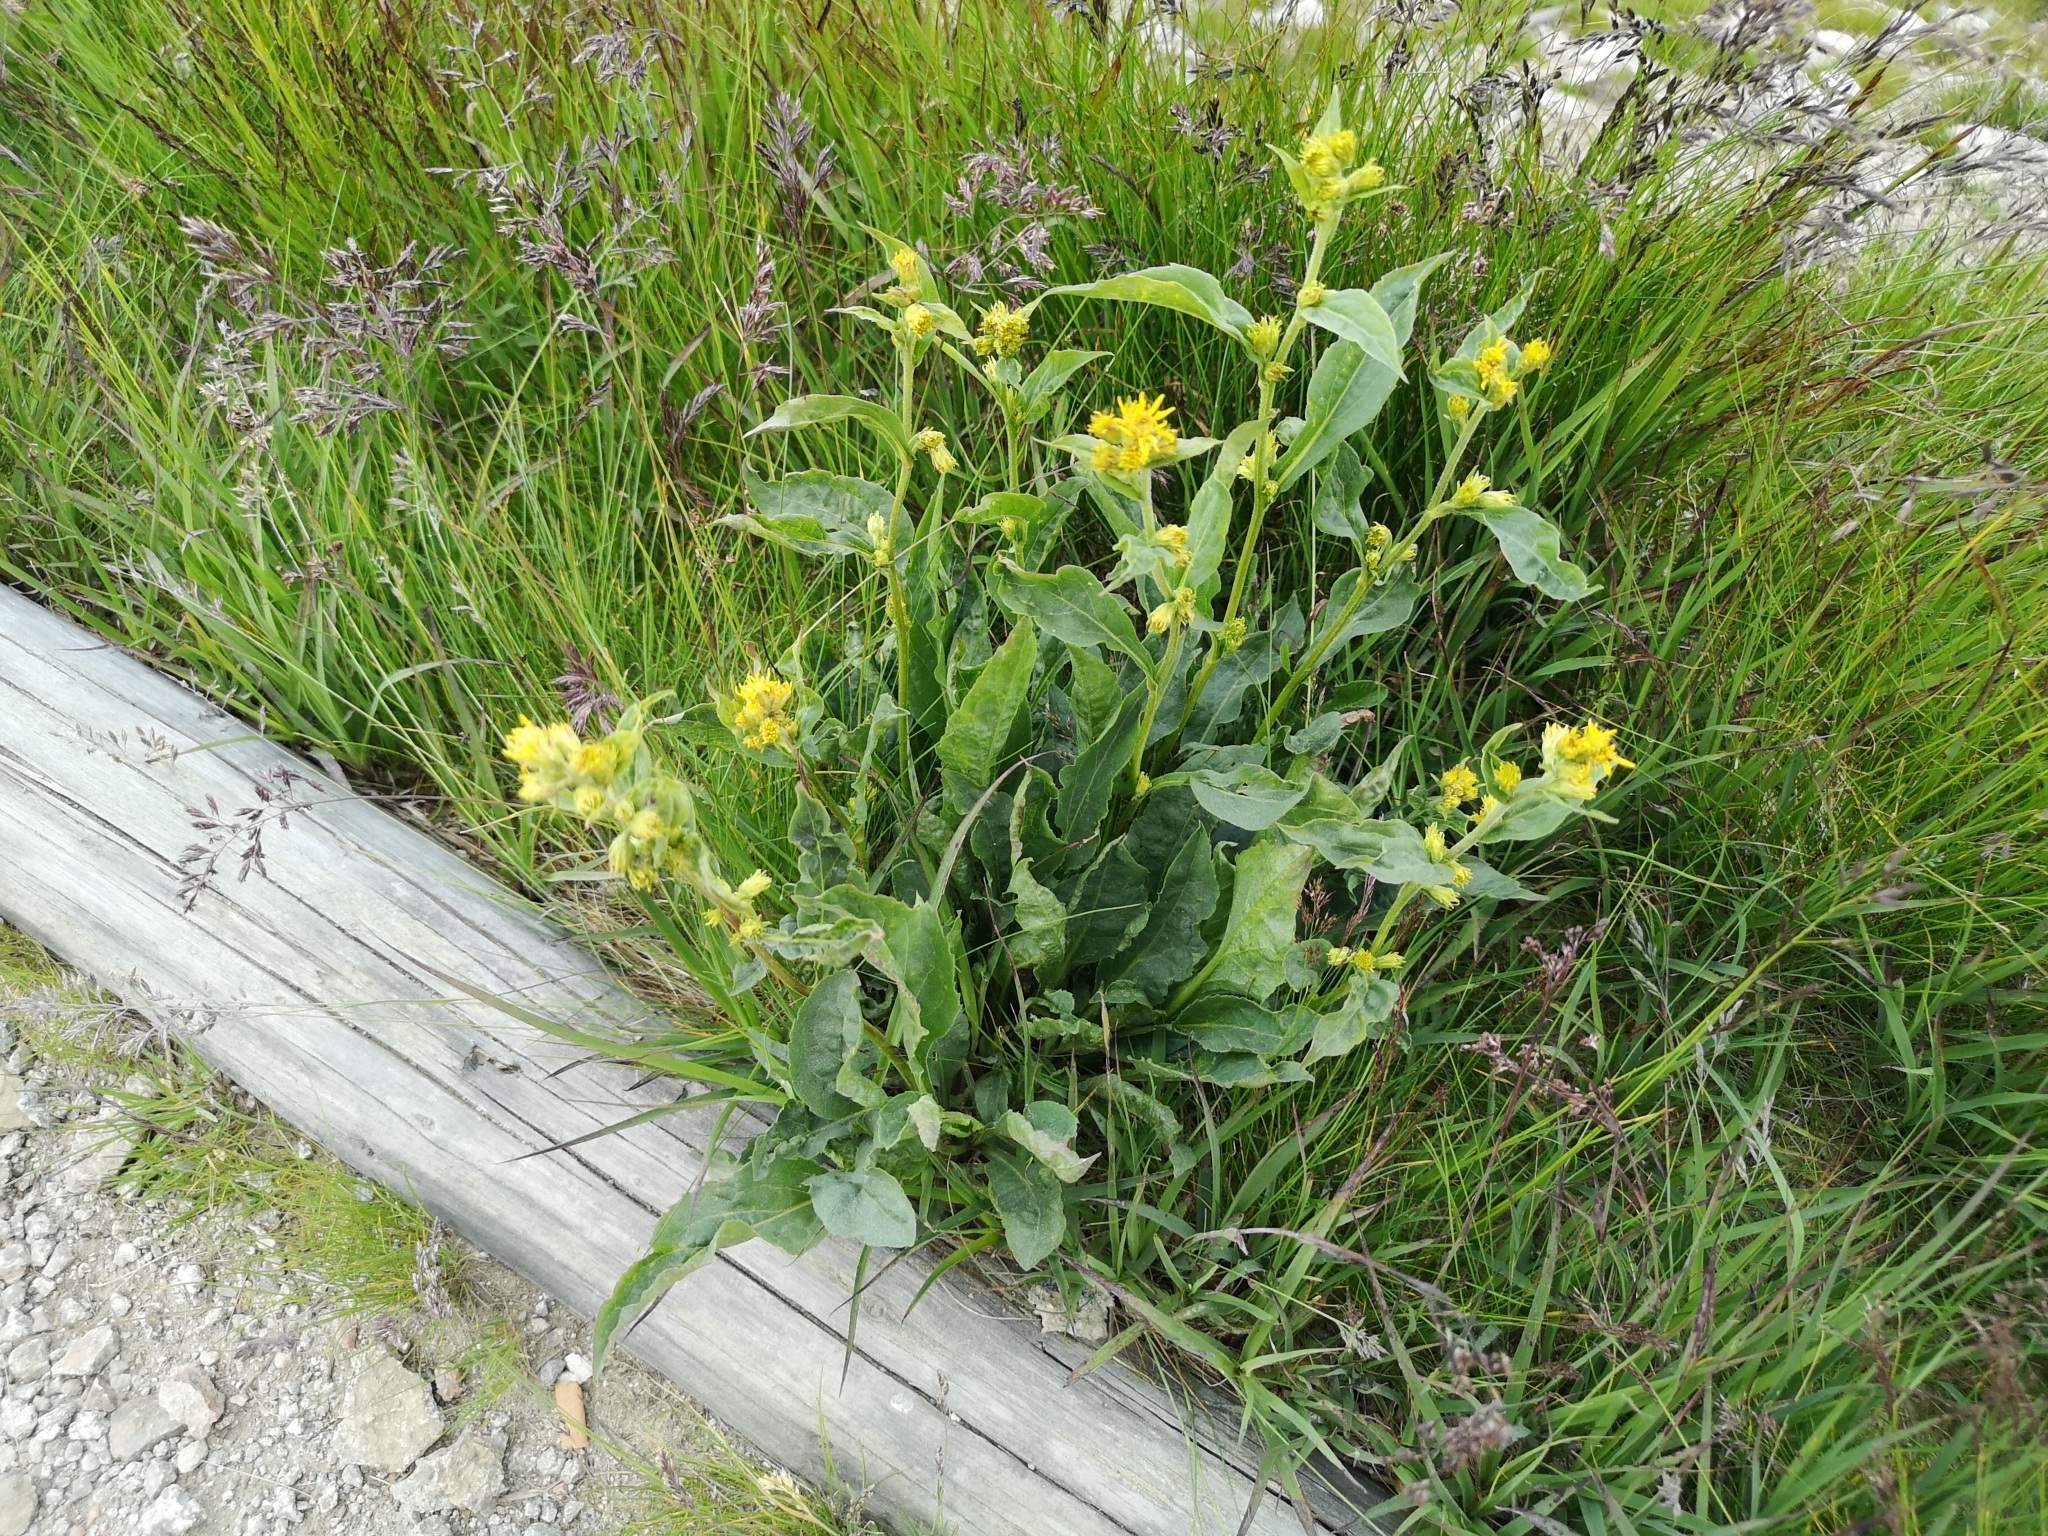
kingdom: Plantae
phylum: Tracheophyta
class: Magnoliopsida
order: Asterales
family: Asteraceae
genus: Solidago
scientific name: Solidago virgaurea
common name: Goldenrod
